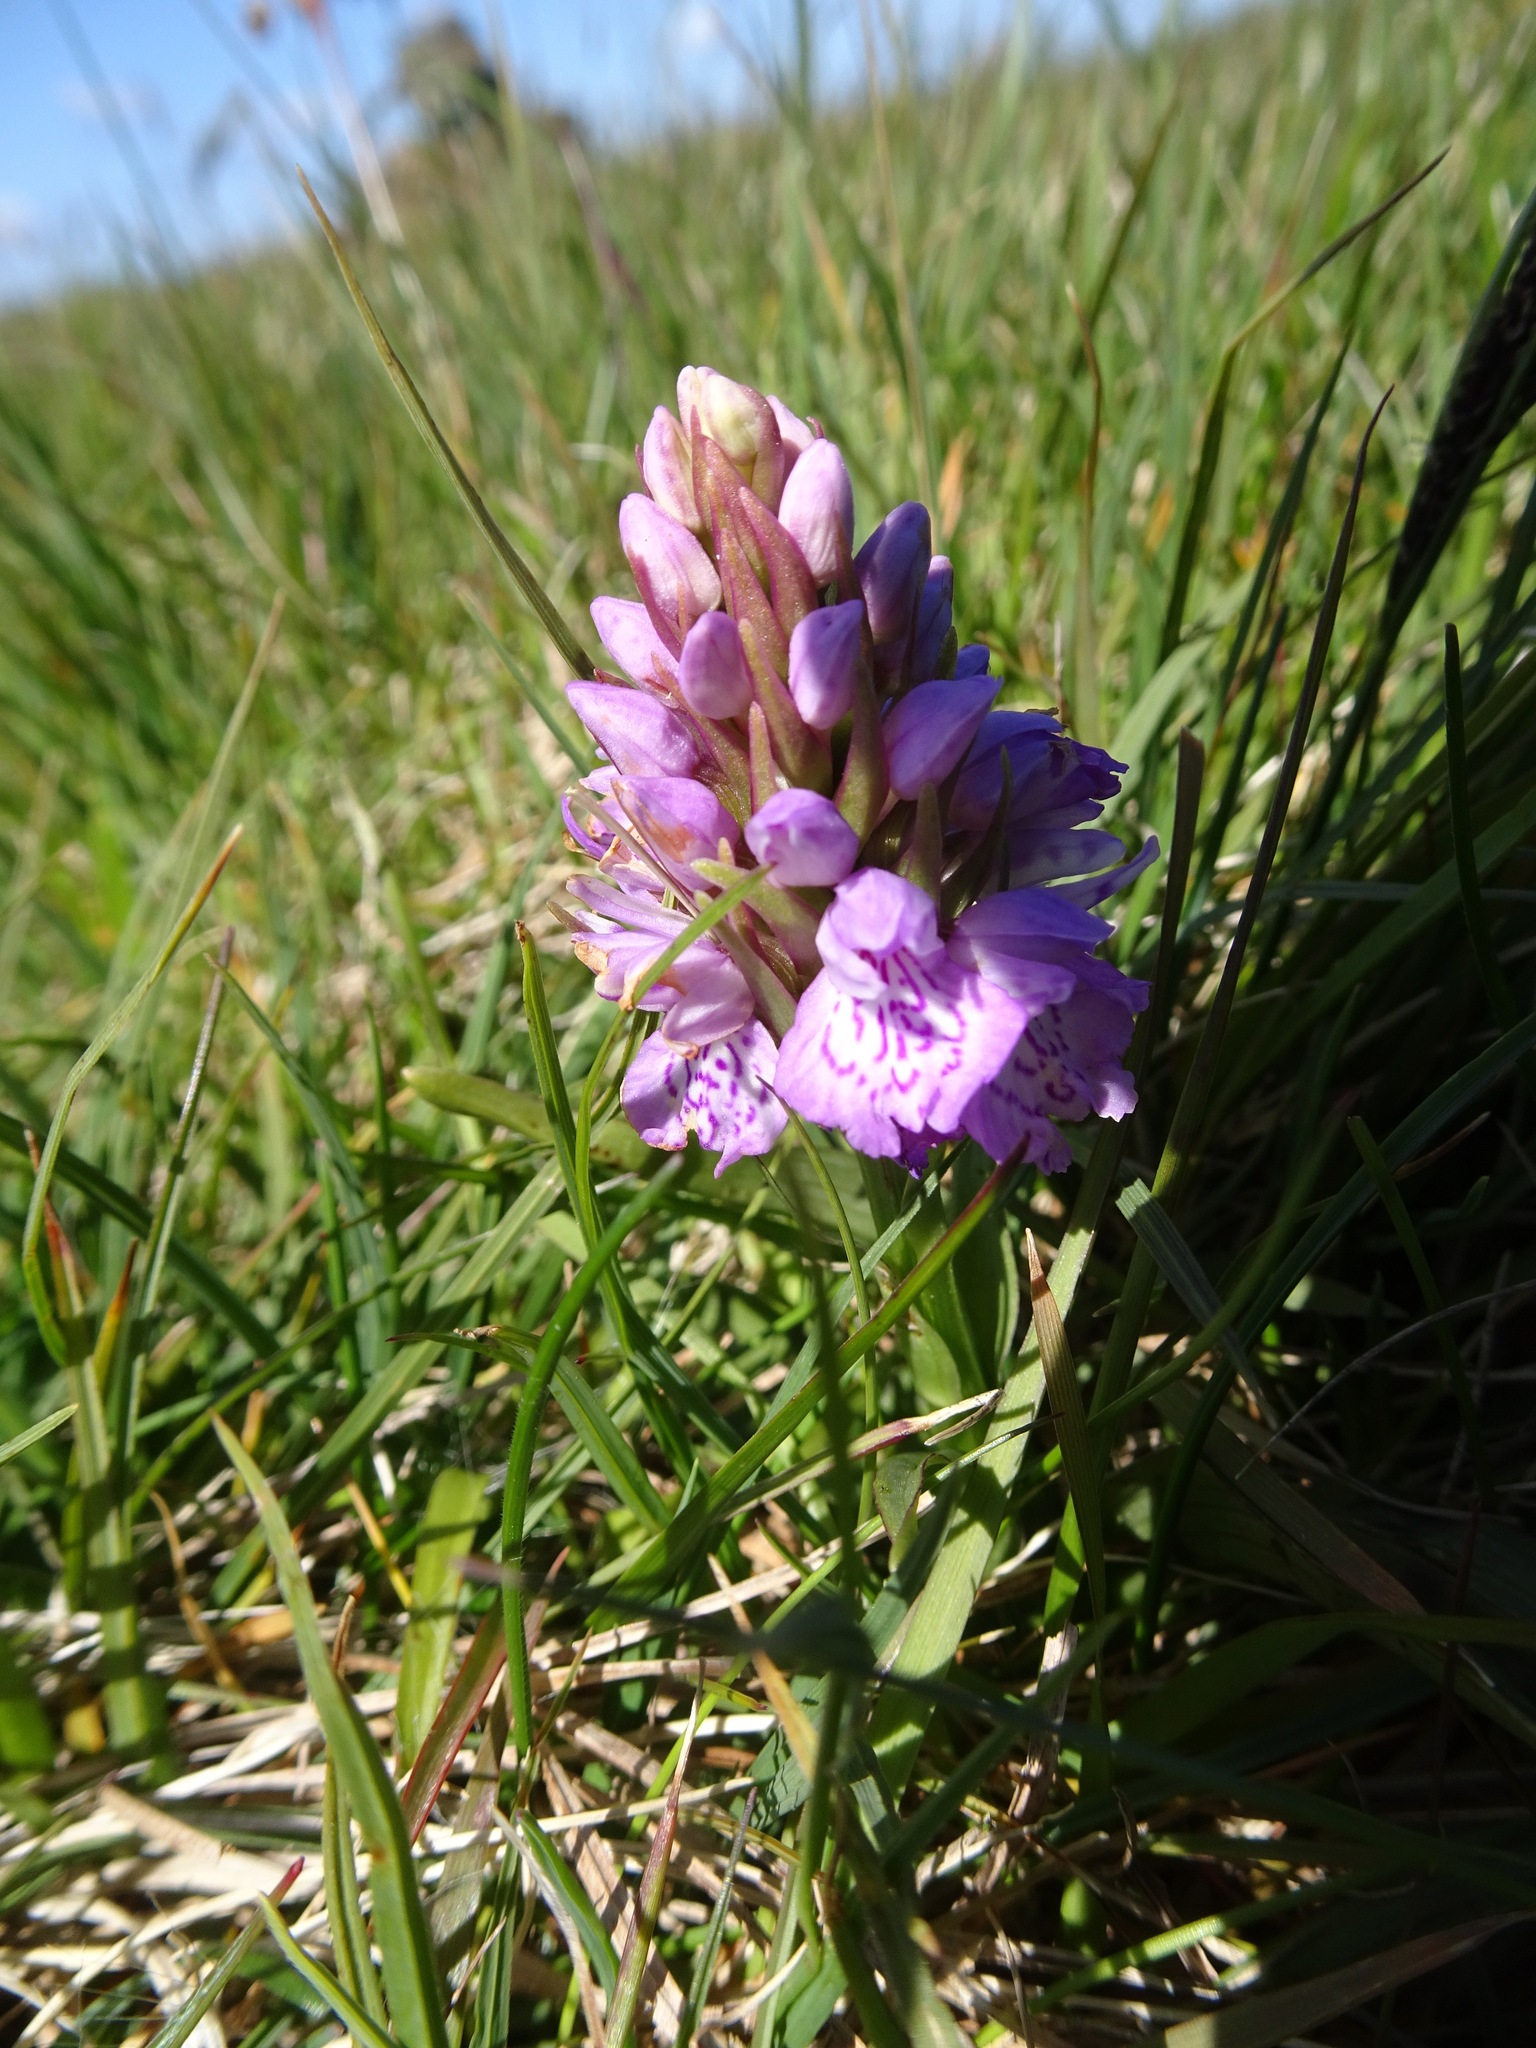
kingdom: Plantae
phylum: Tracheophyta
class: Liliopsida
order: Asparagales
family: Orchidaceae
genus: Dactylorhiza
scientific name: Dactylorhiza maculata
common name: Heath spotted-orchid
